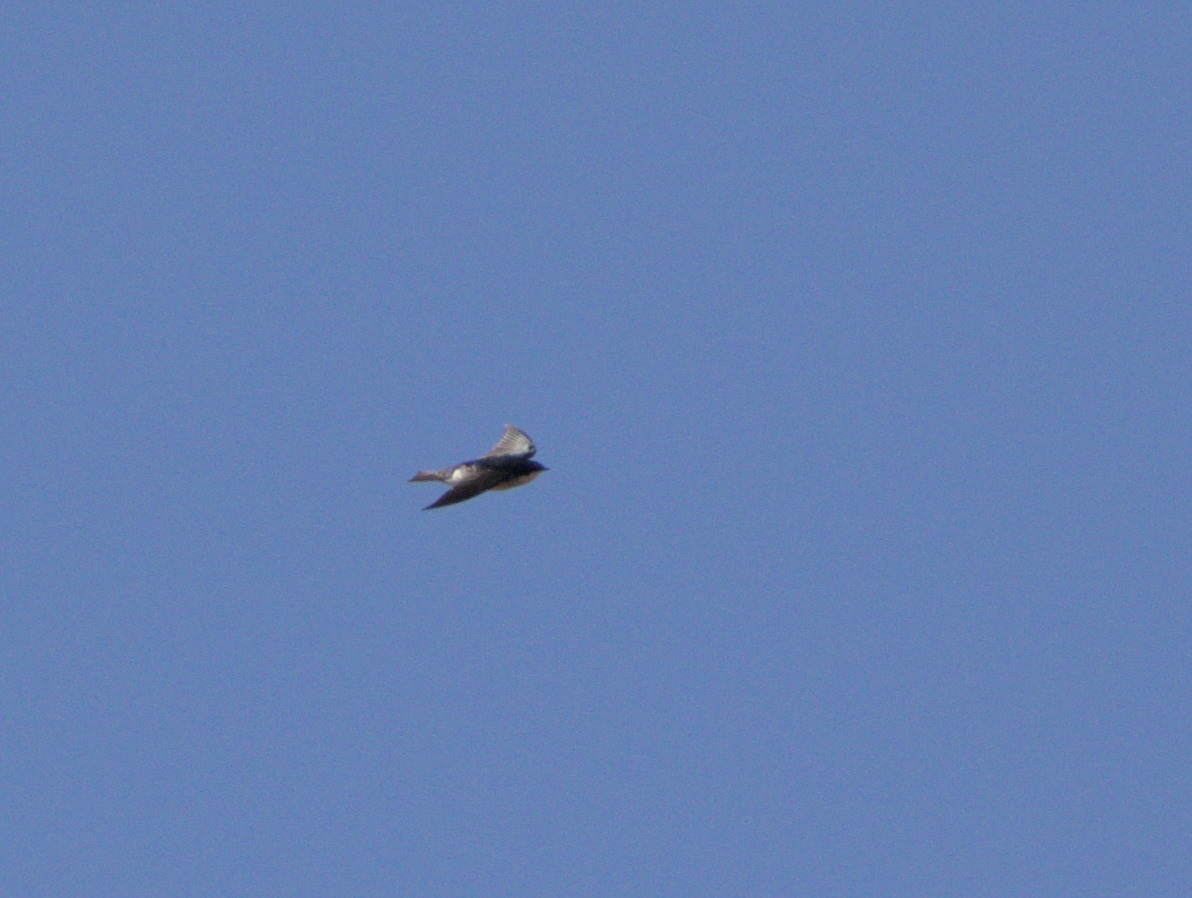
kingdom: Animalia
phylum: Chordata
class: Aves
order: Passeriformes
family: Hirundinidae
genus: Tachycineta
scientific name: Tachycineta bicolor
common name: Tree swallow
